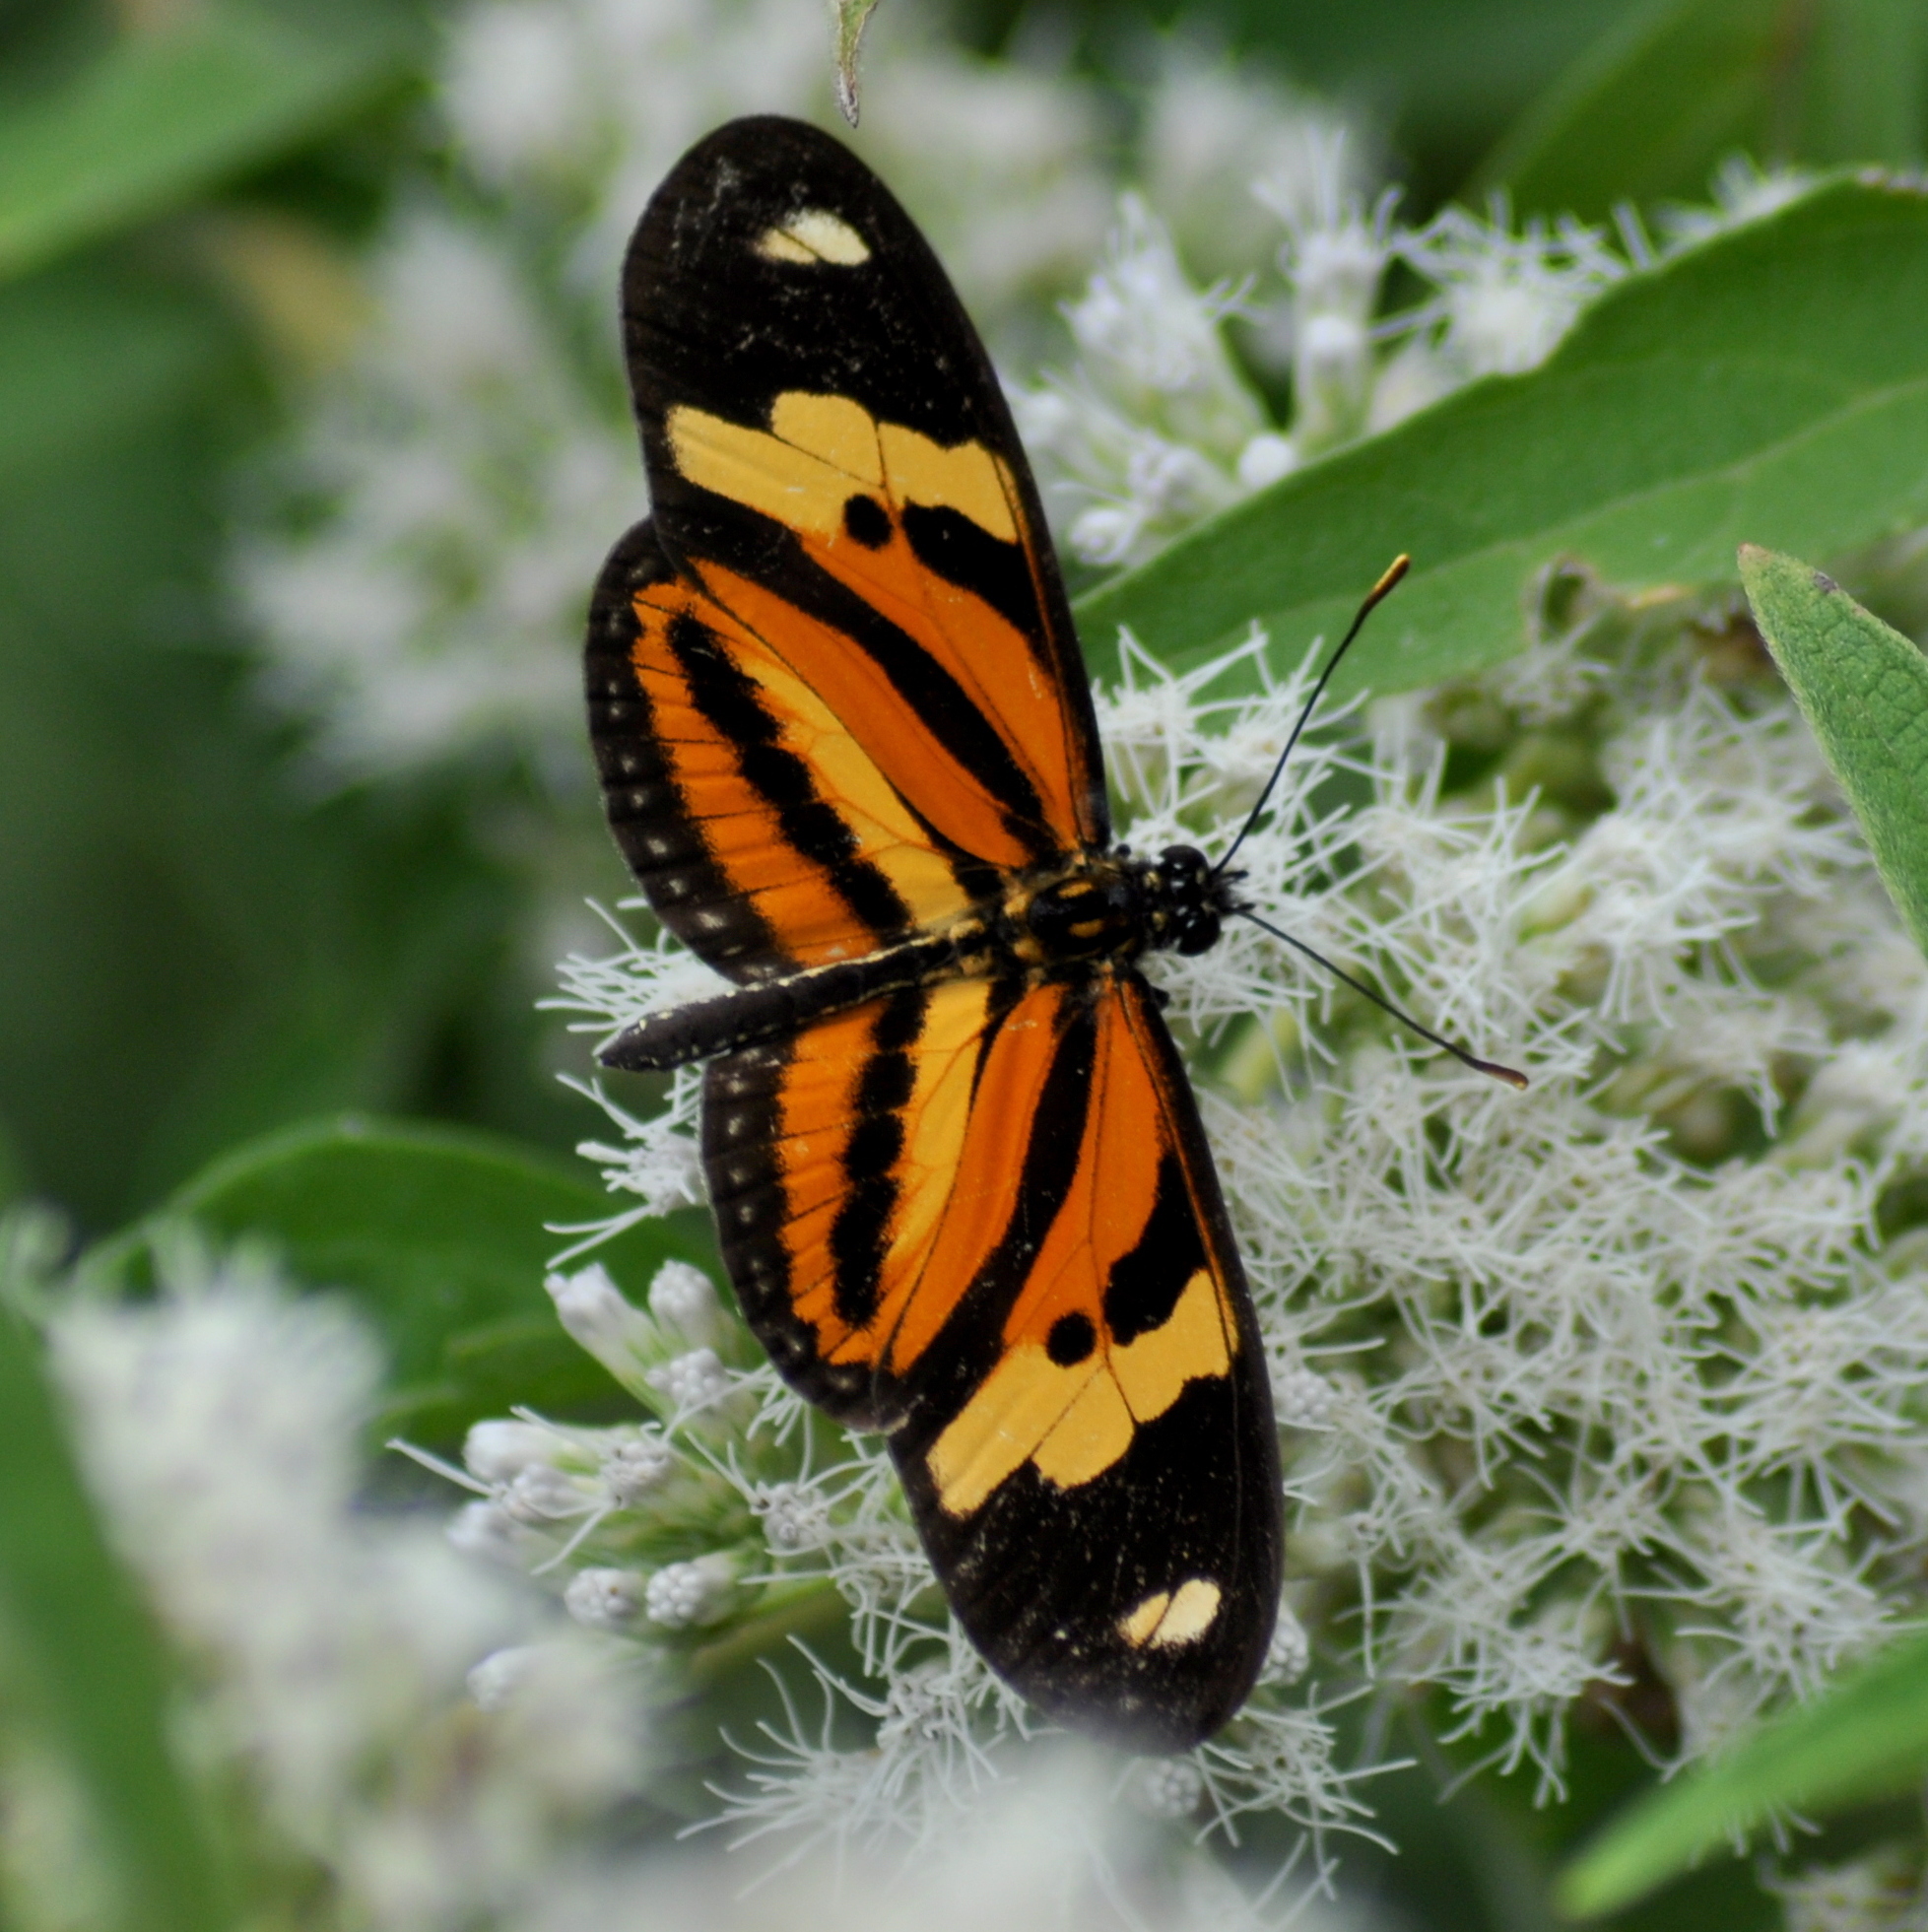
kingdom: Animalia
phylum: Arthropoda
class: Insecta
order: Lepidoptera
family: Nymphalidae
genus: Eueides
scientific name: Eueides isabella
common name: Isabella's longwing
